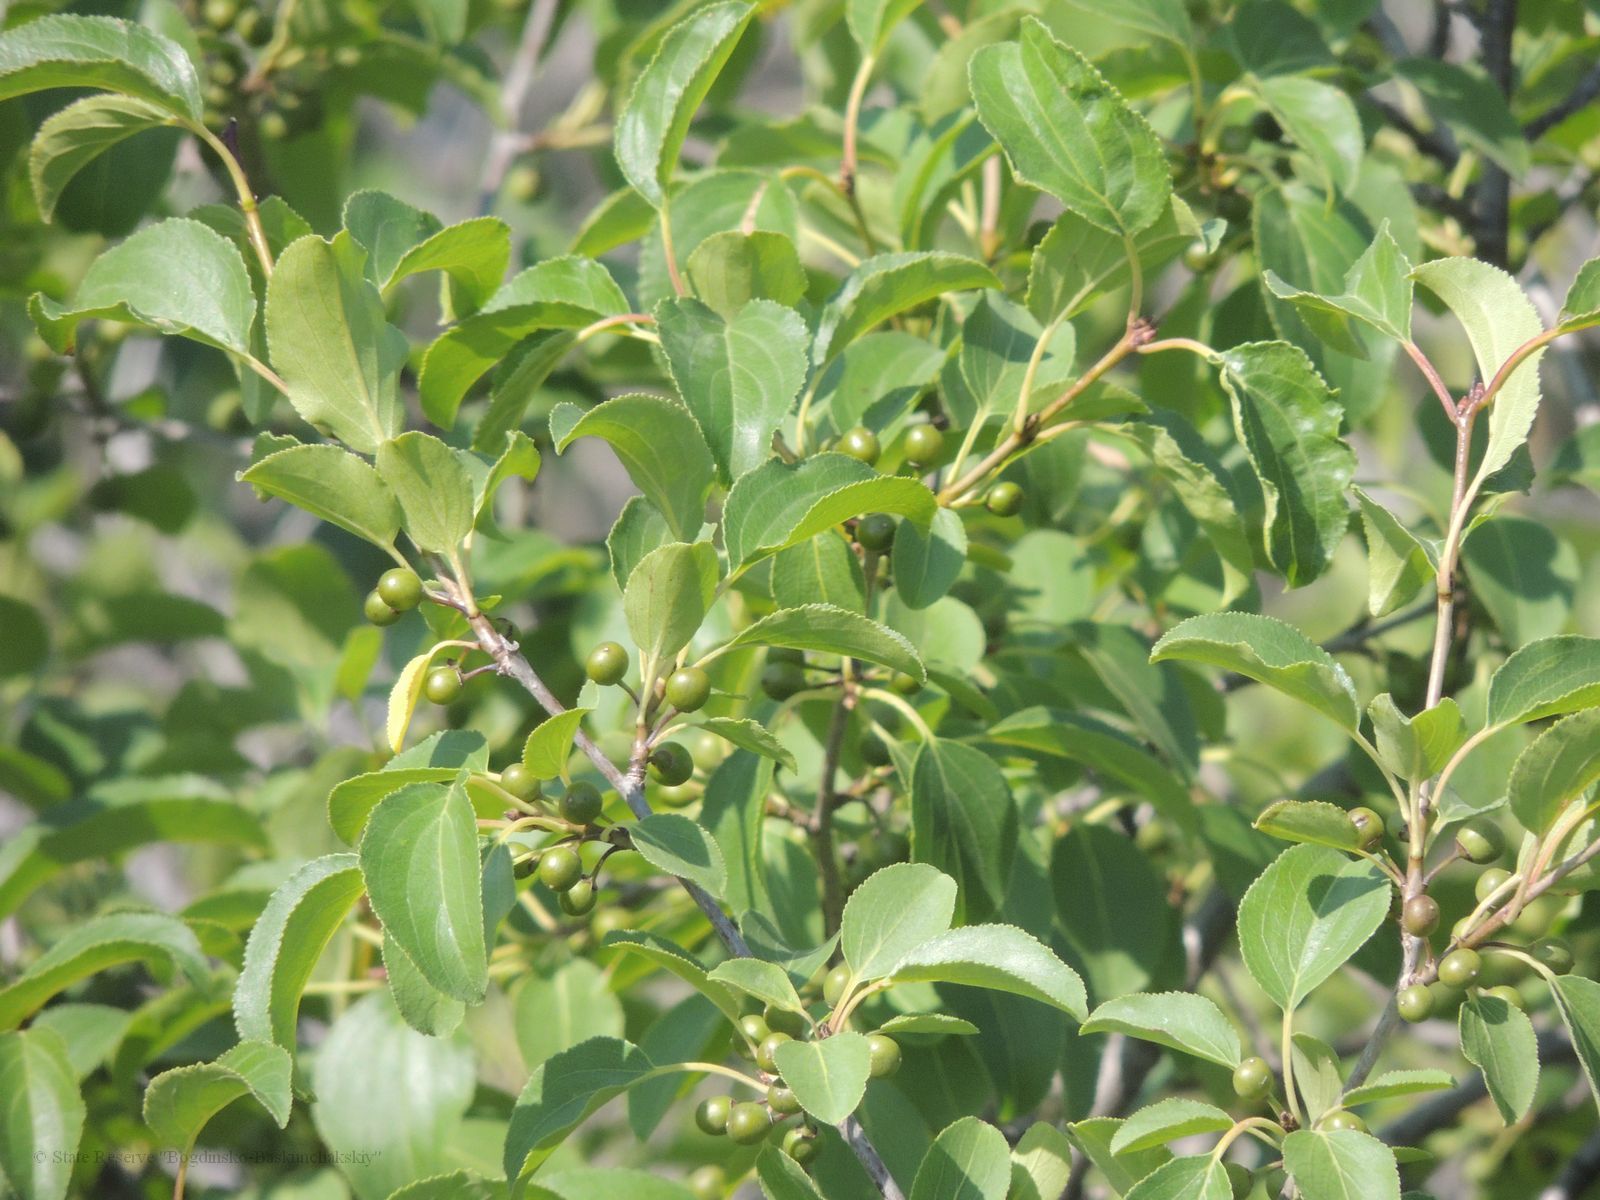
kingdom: Plantae
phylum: Tracheophyta
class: Magnoliopsida
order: Rosales
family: Rhamnaceae
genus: Rhamnus
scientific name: Rhamnus cathartica
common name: Common buckthorn
